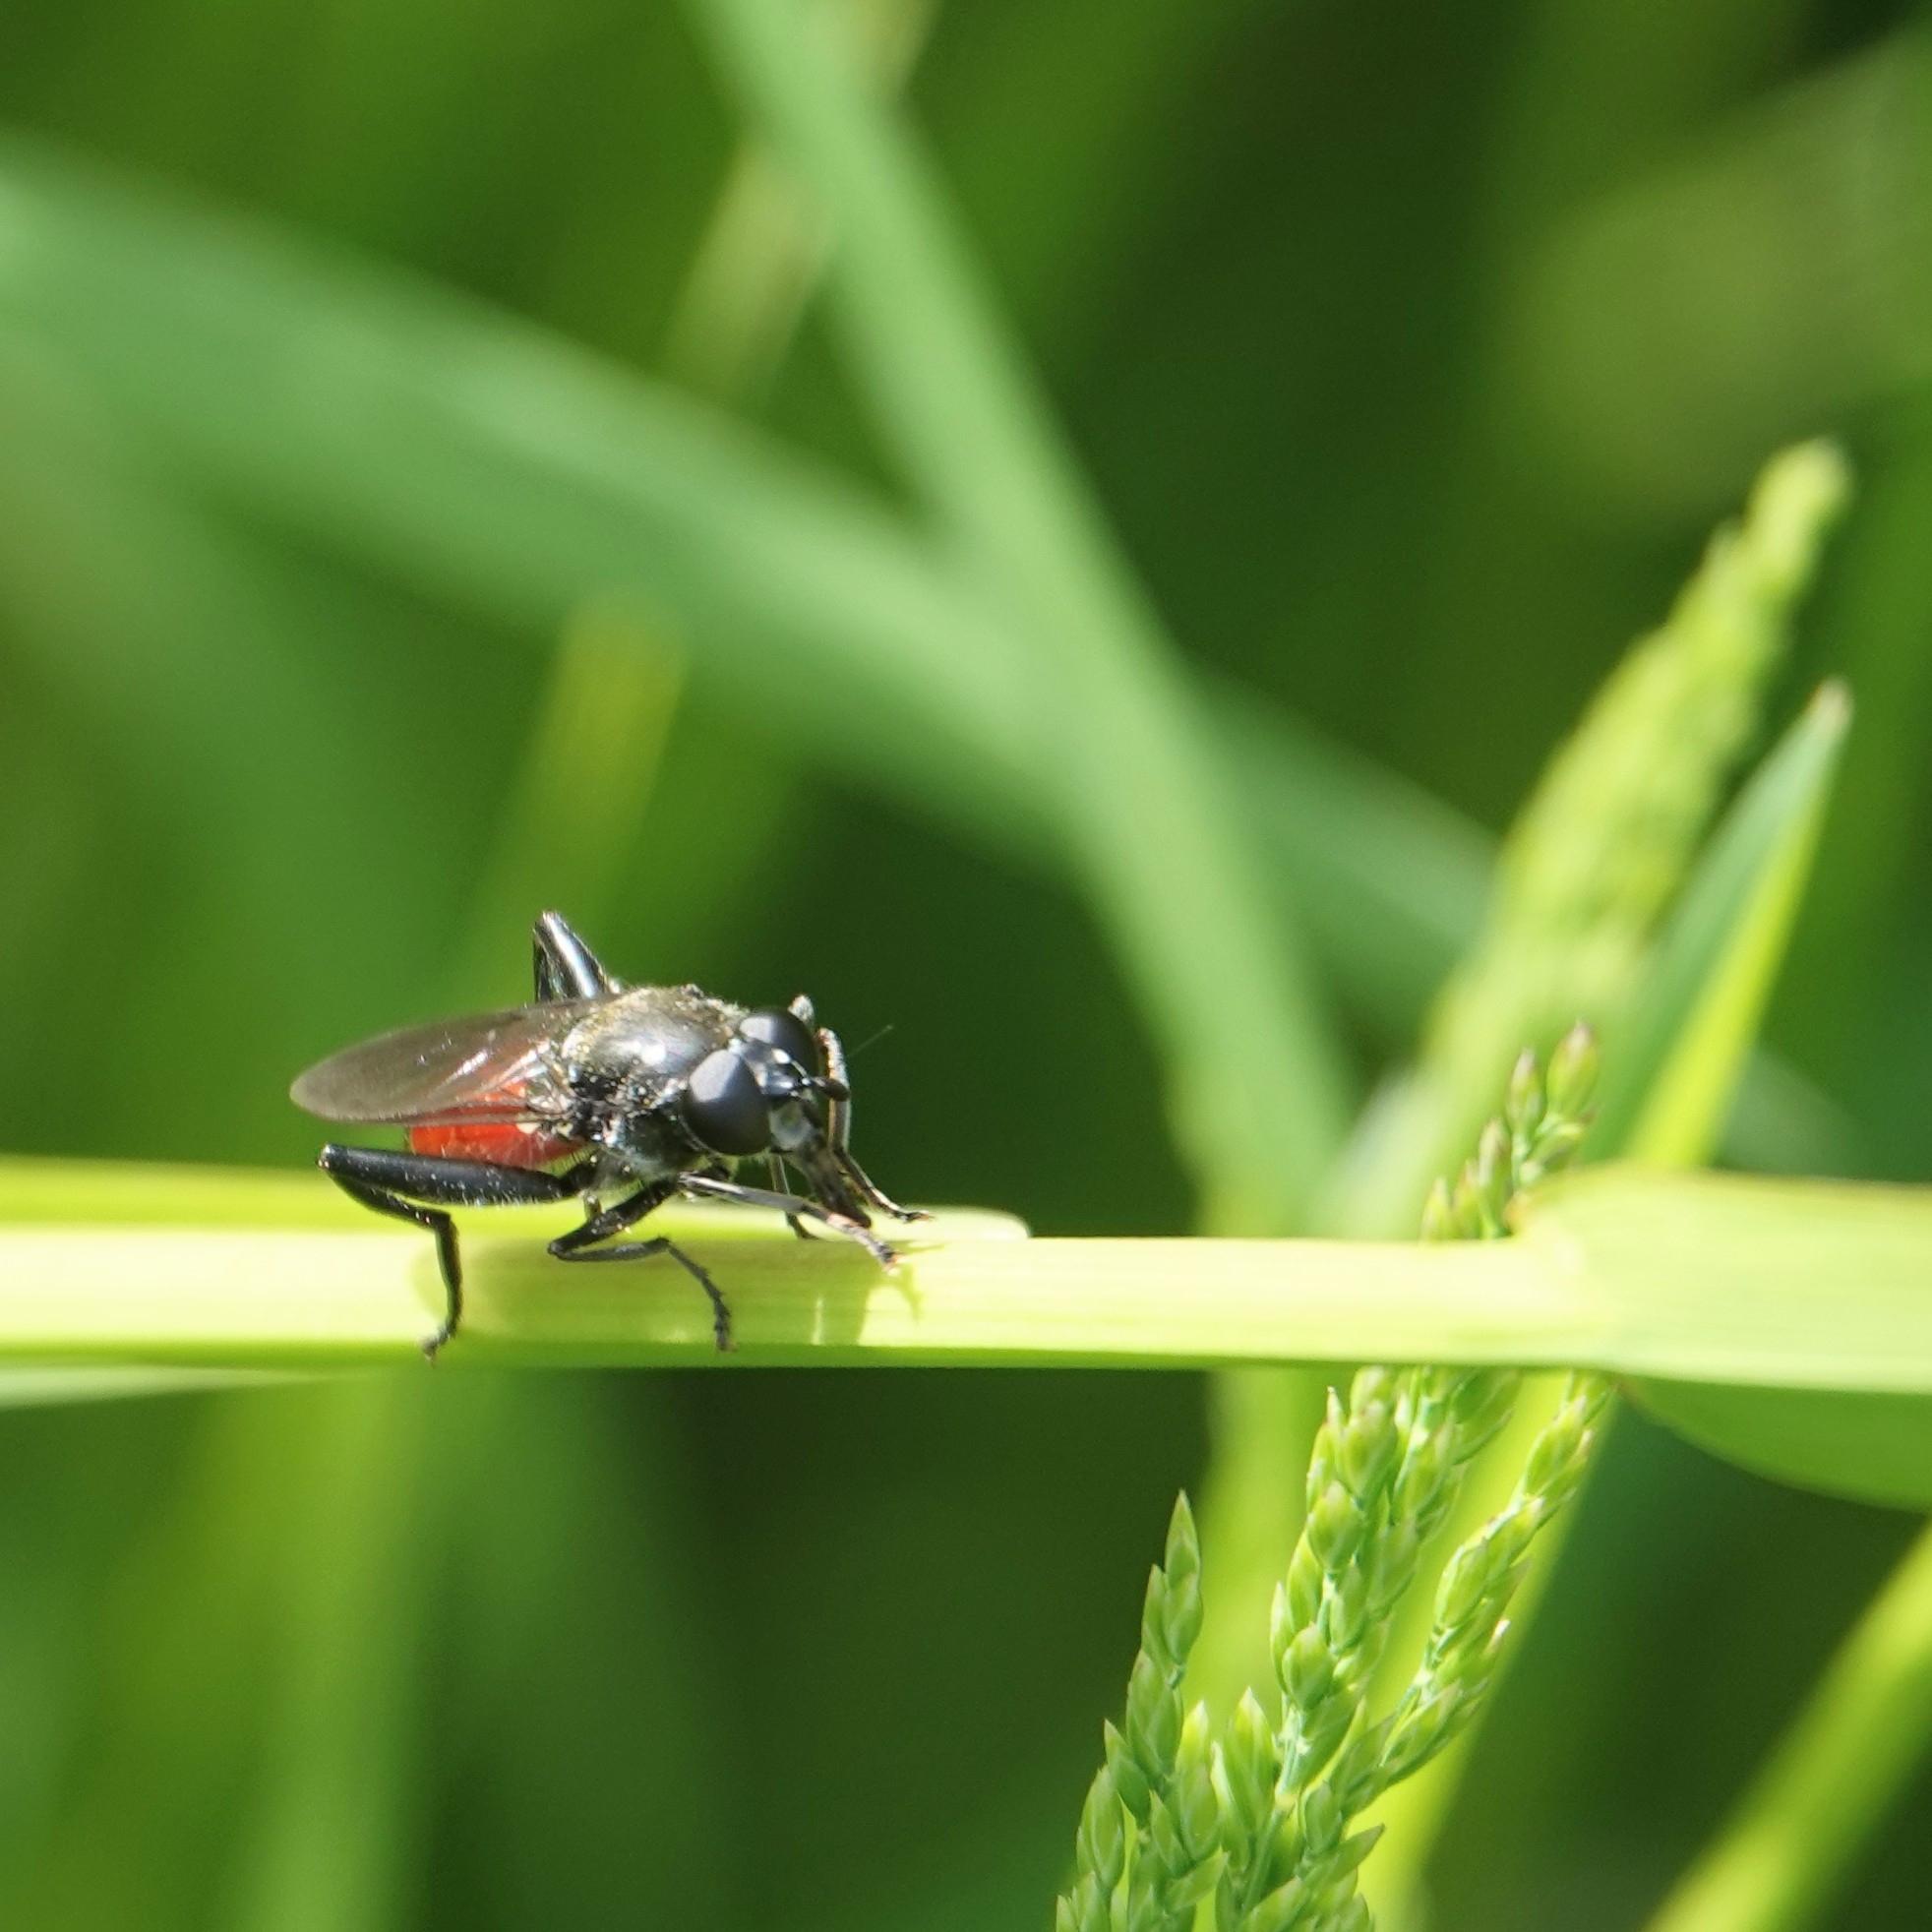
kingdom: Animalia
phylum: Arthropoda
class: Insecta
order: Diptera
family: Syrphidae
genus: Brachypalpoides
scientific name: Brachypalpoides lenta
